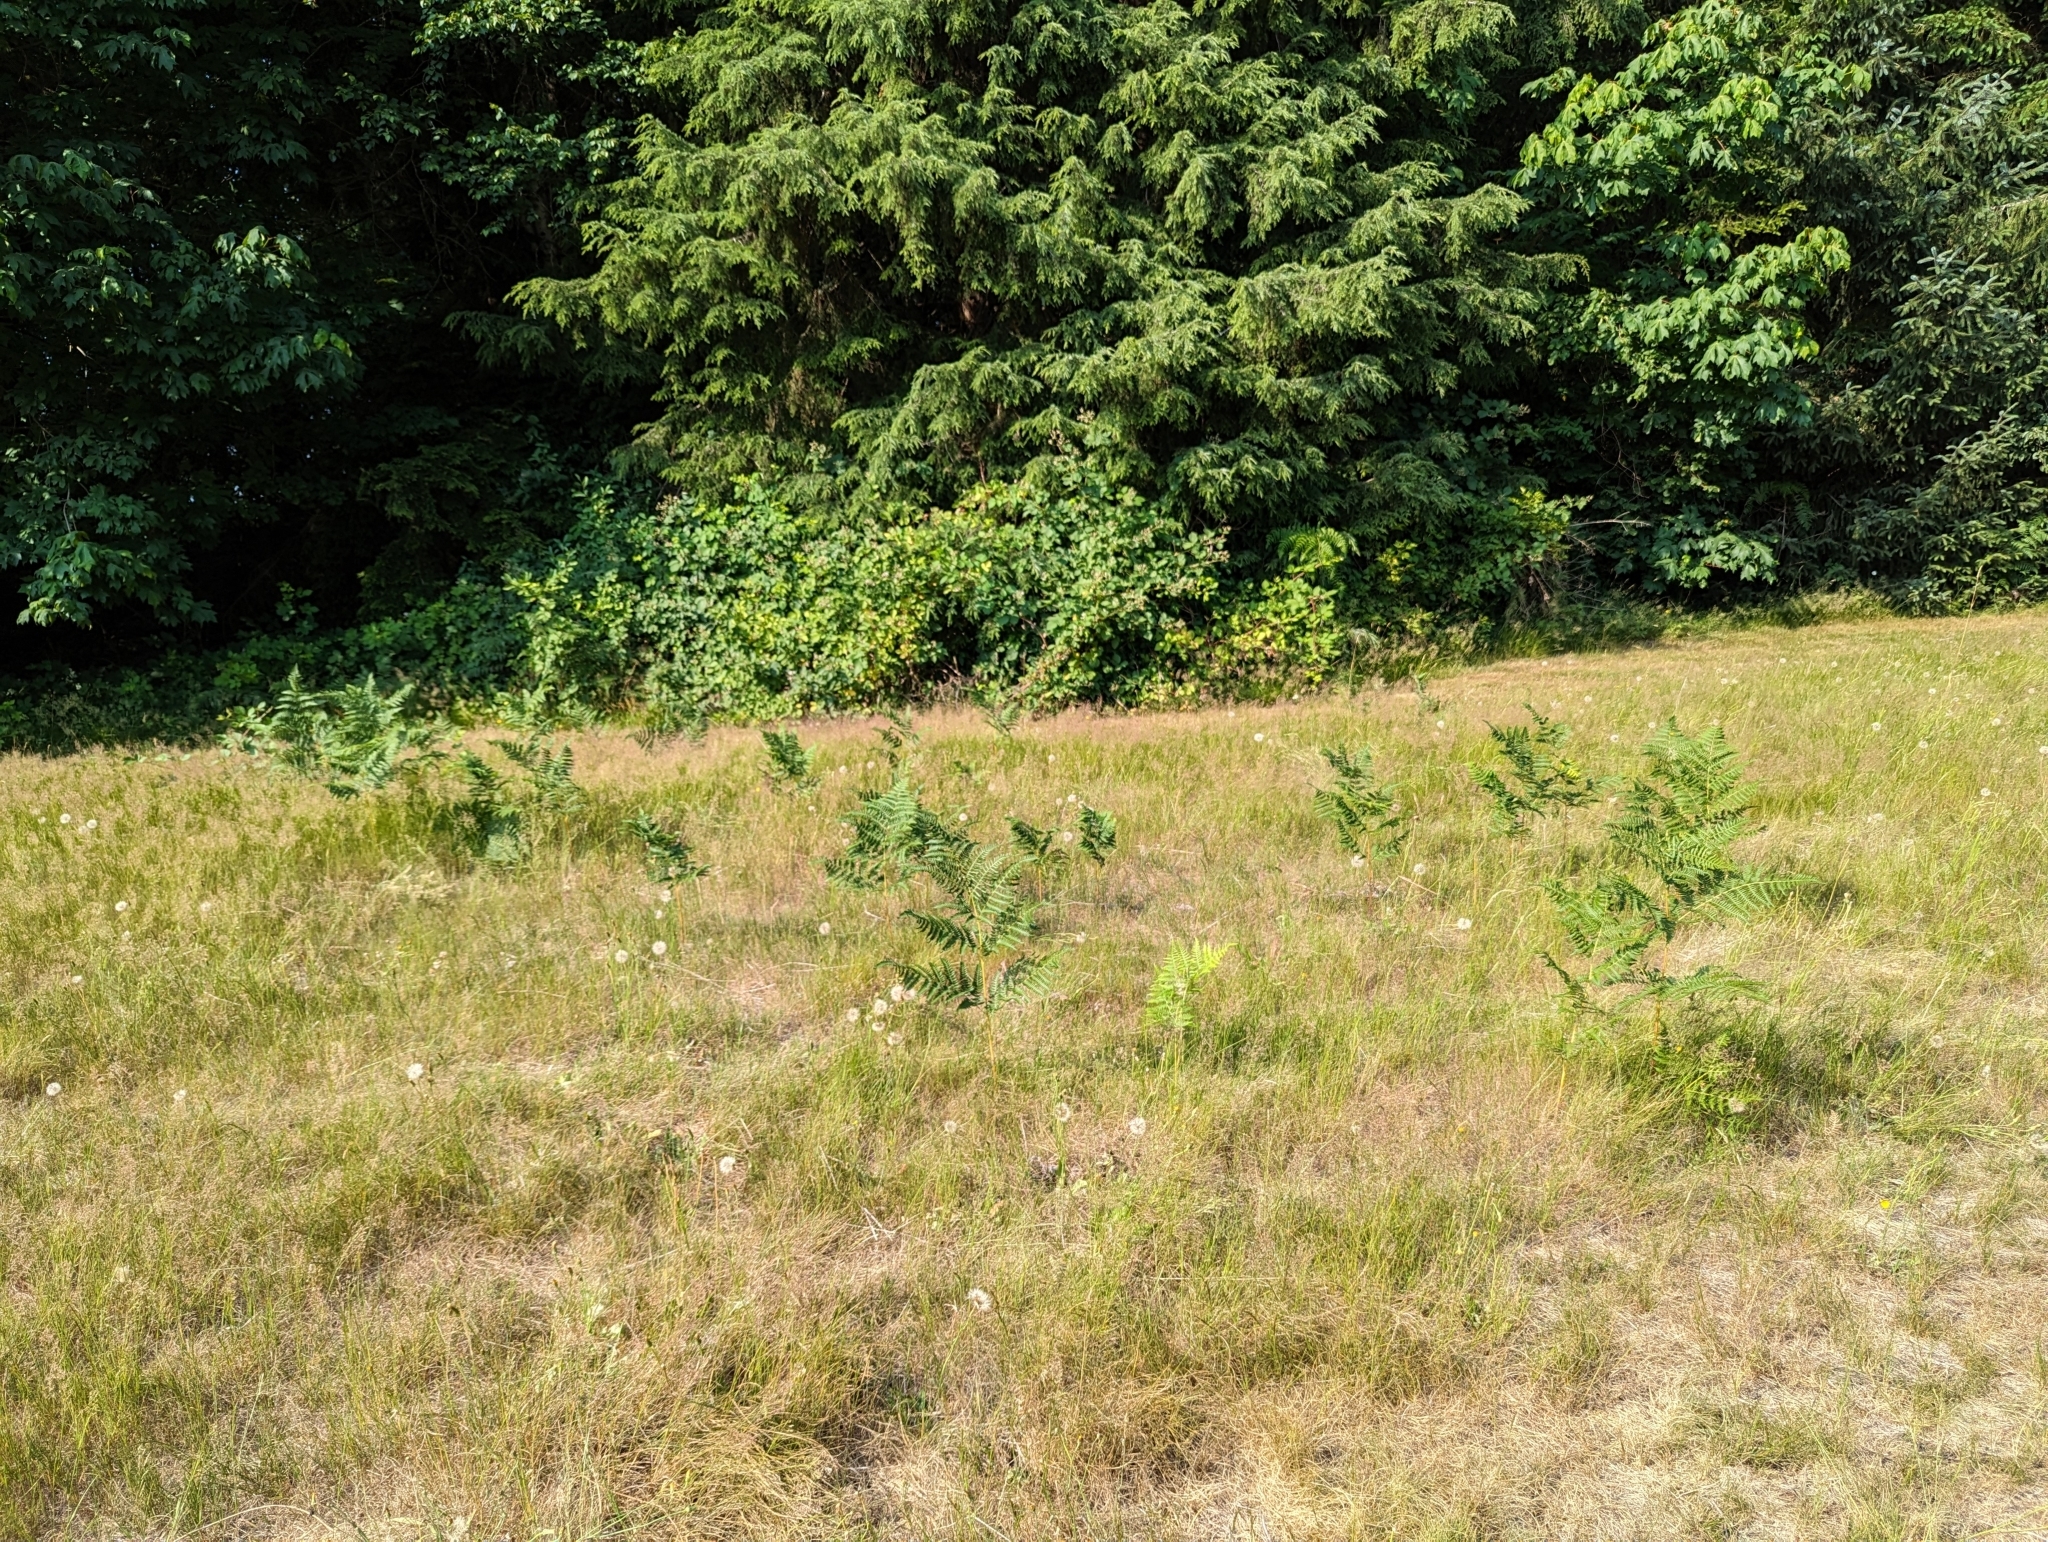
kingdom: Plantae
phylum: Tracheophyta
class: Polypodiopsida
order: Polypodiales
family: Dennstaedtiaceae
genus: Pteridium
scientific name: Pteridium aquilinum
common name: Bracken
